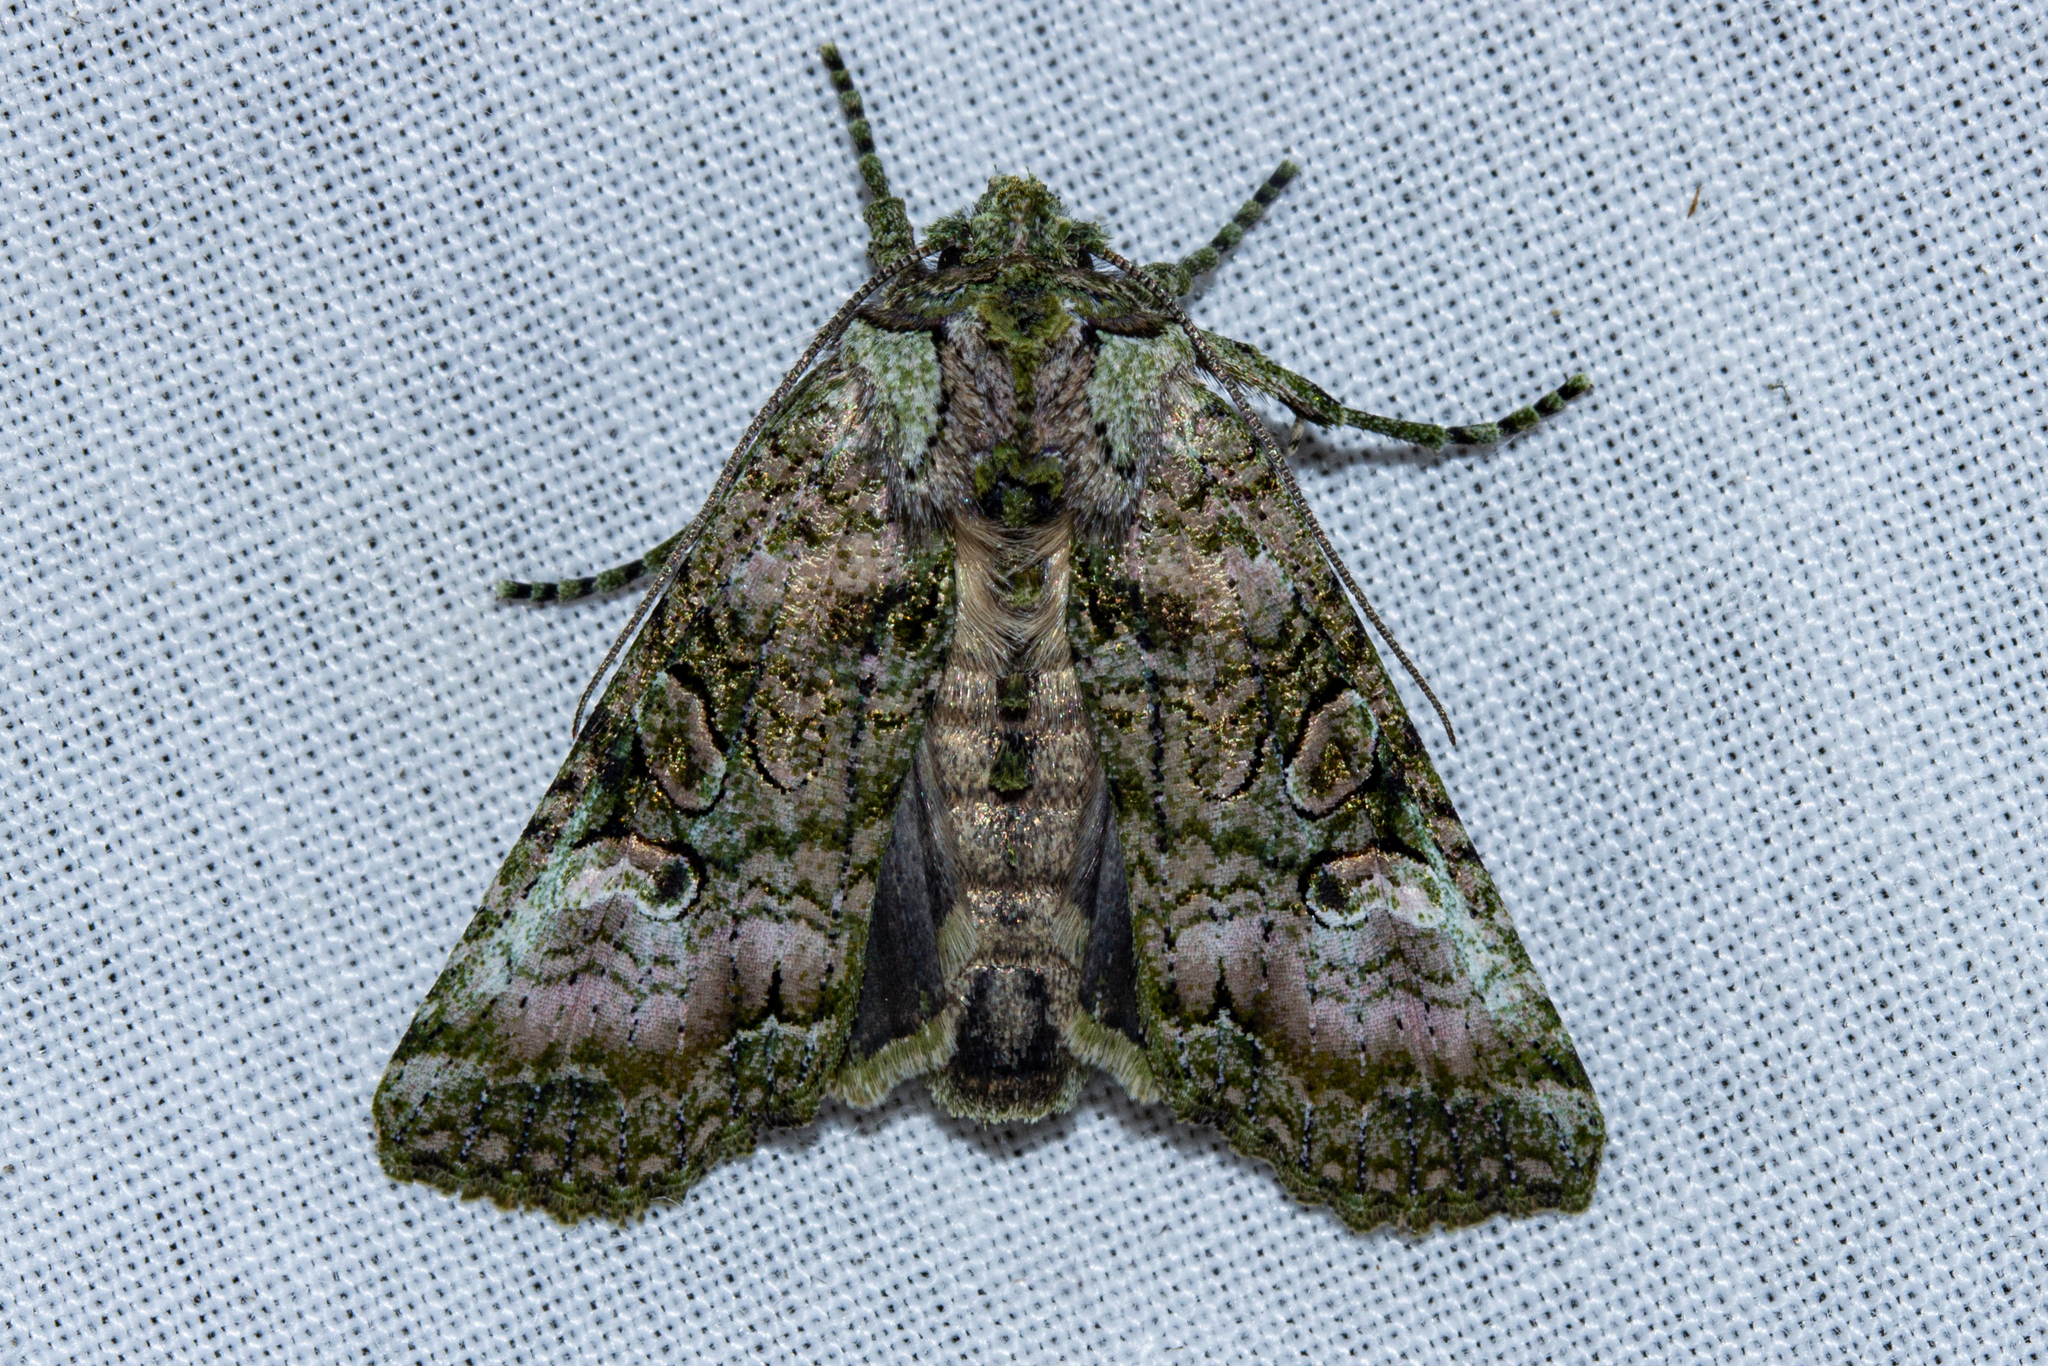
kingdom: Animalia
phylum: Arthropoda
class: Insecta
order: Lepidoptera
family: Noctuidae
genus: Meterana
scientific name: Meterana levis
